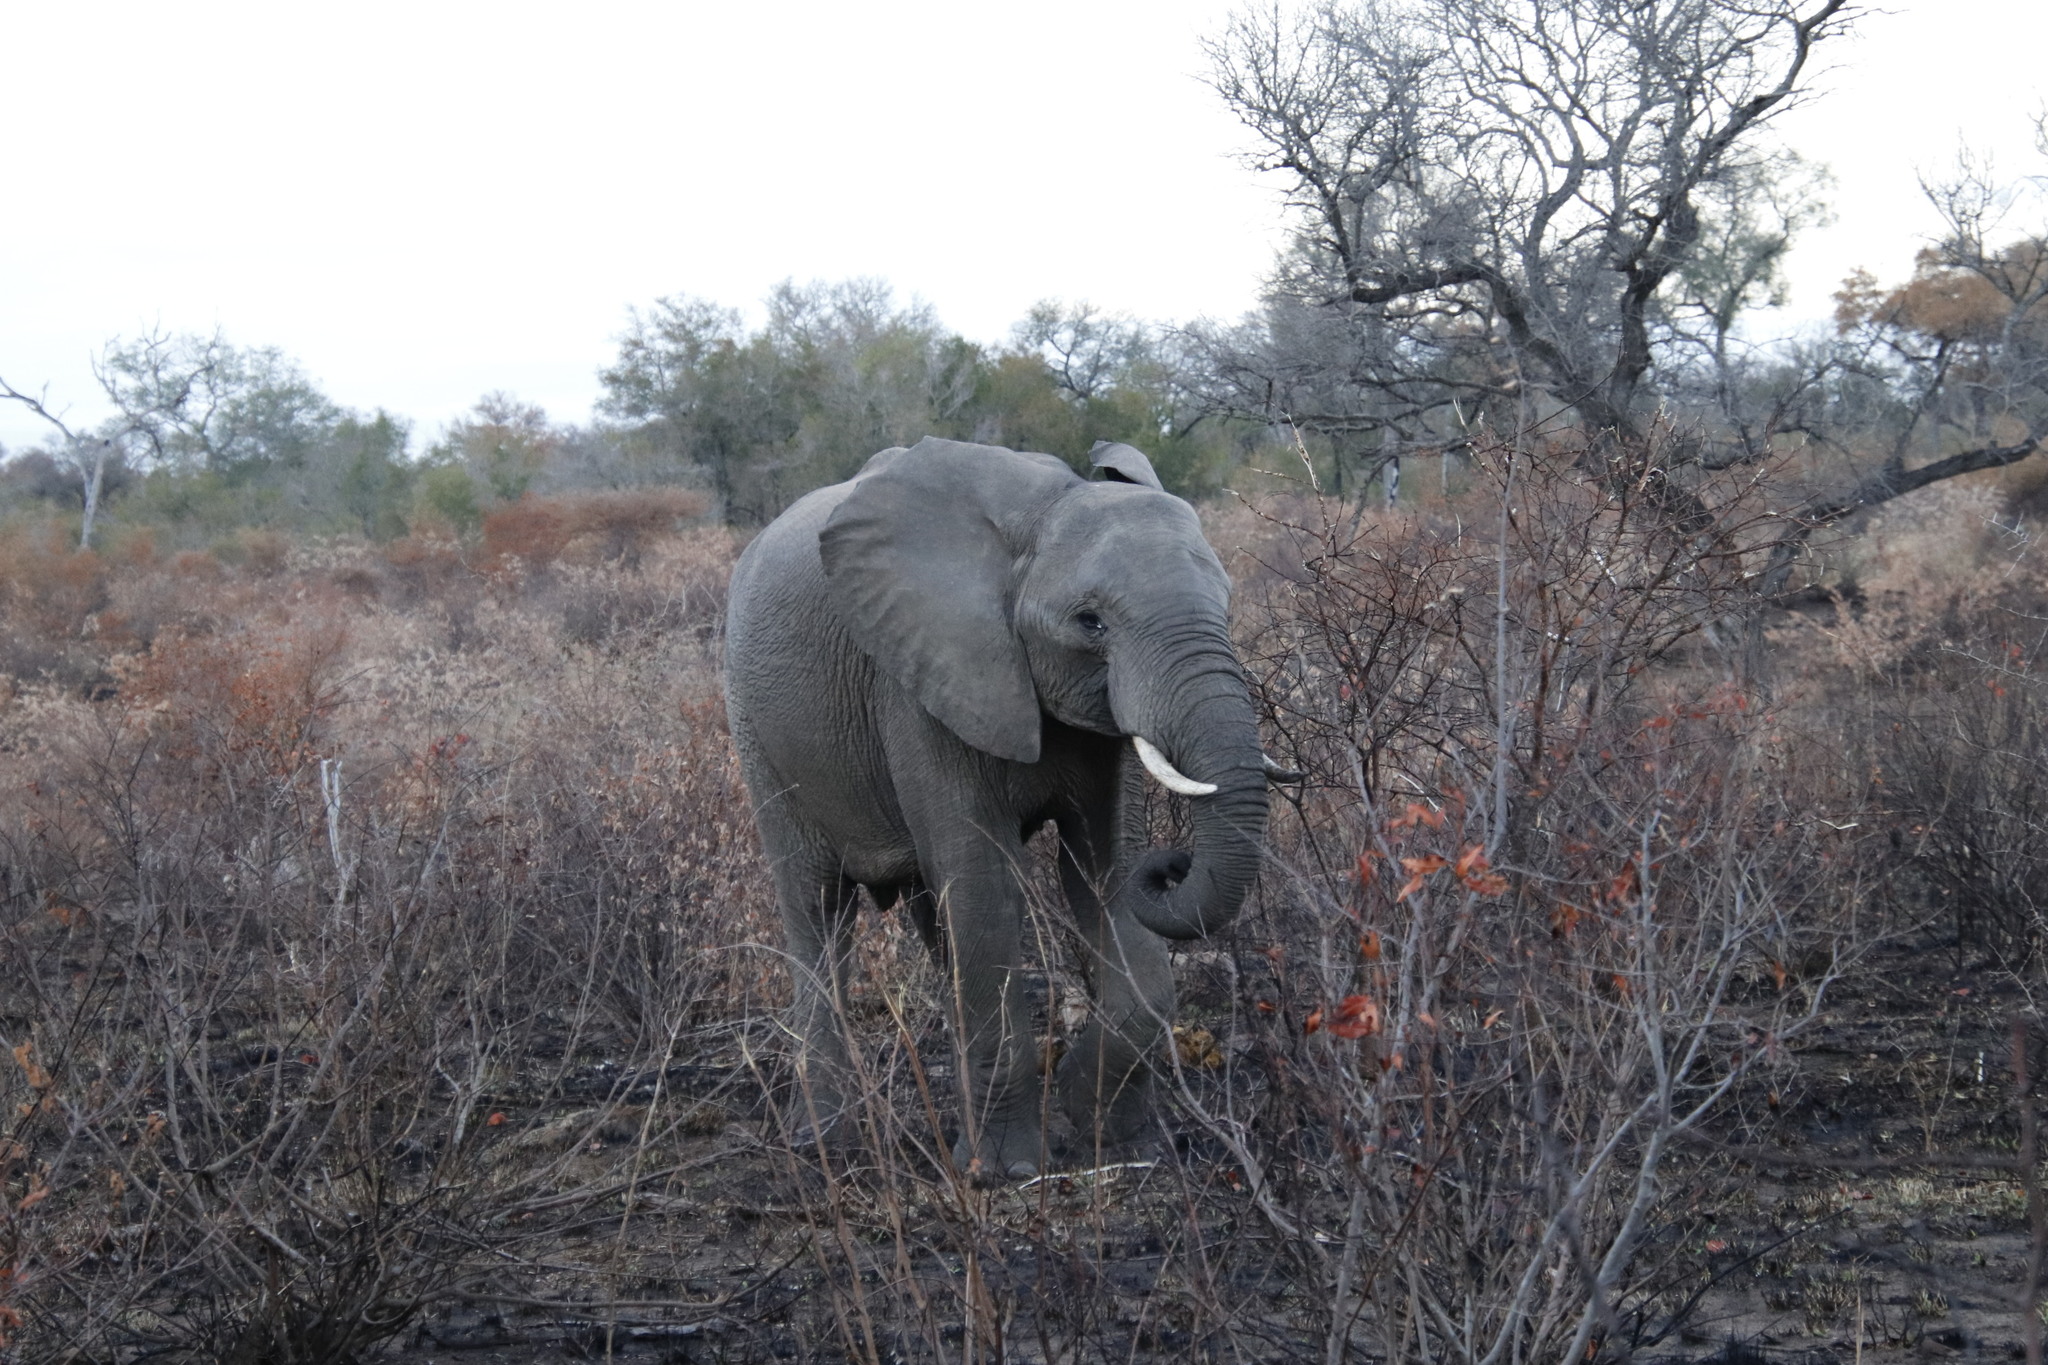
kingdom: Animalia
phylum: Chordata
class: Mammalia
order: Proboscidea
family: Elephantidae
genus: Loxodonta
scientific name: Loxodonta africana
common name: African elephant
